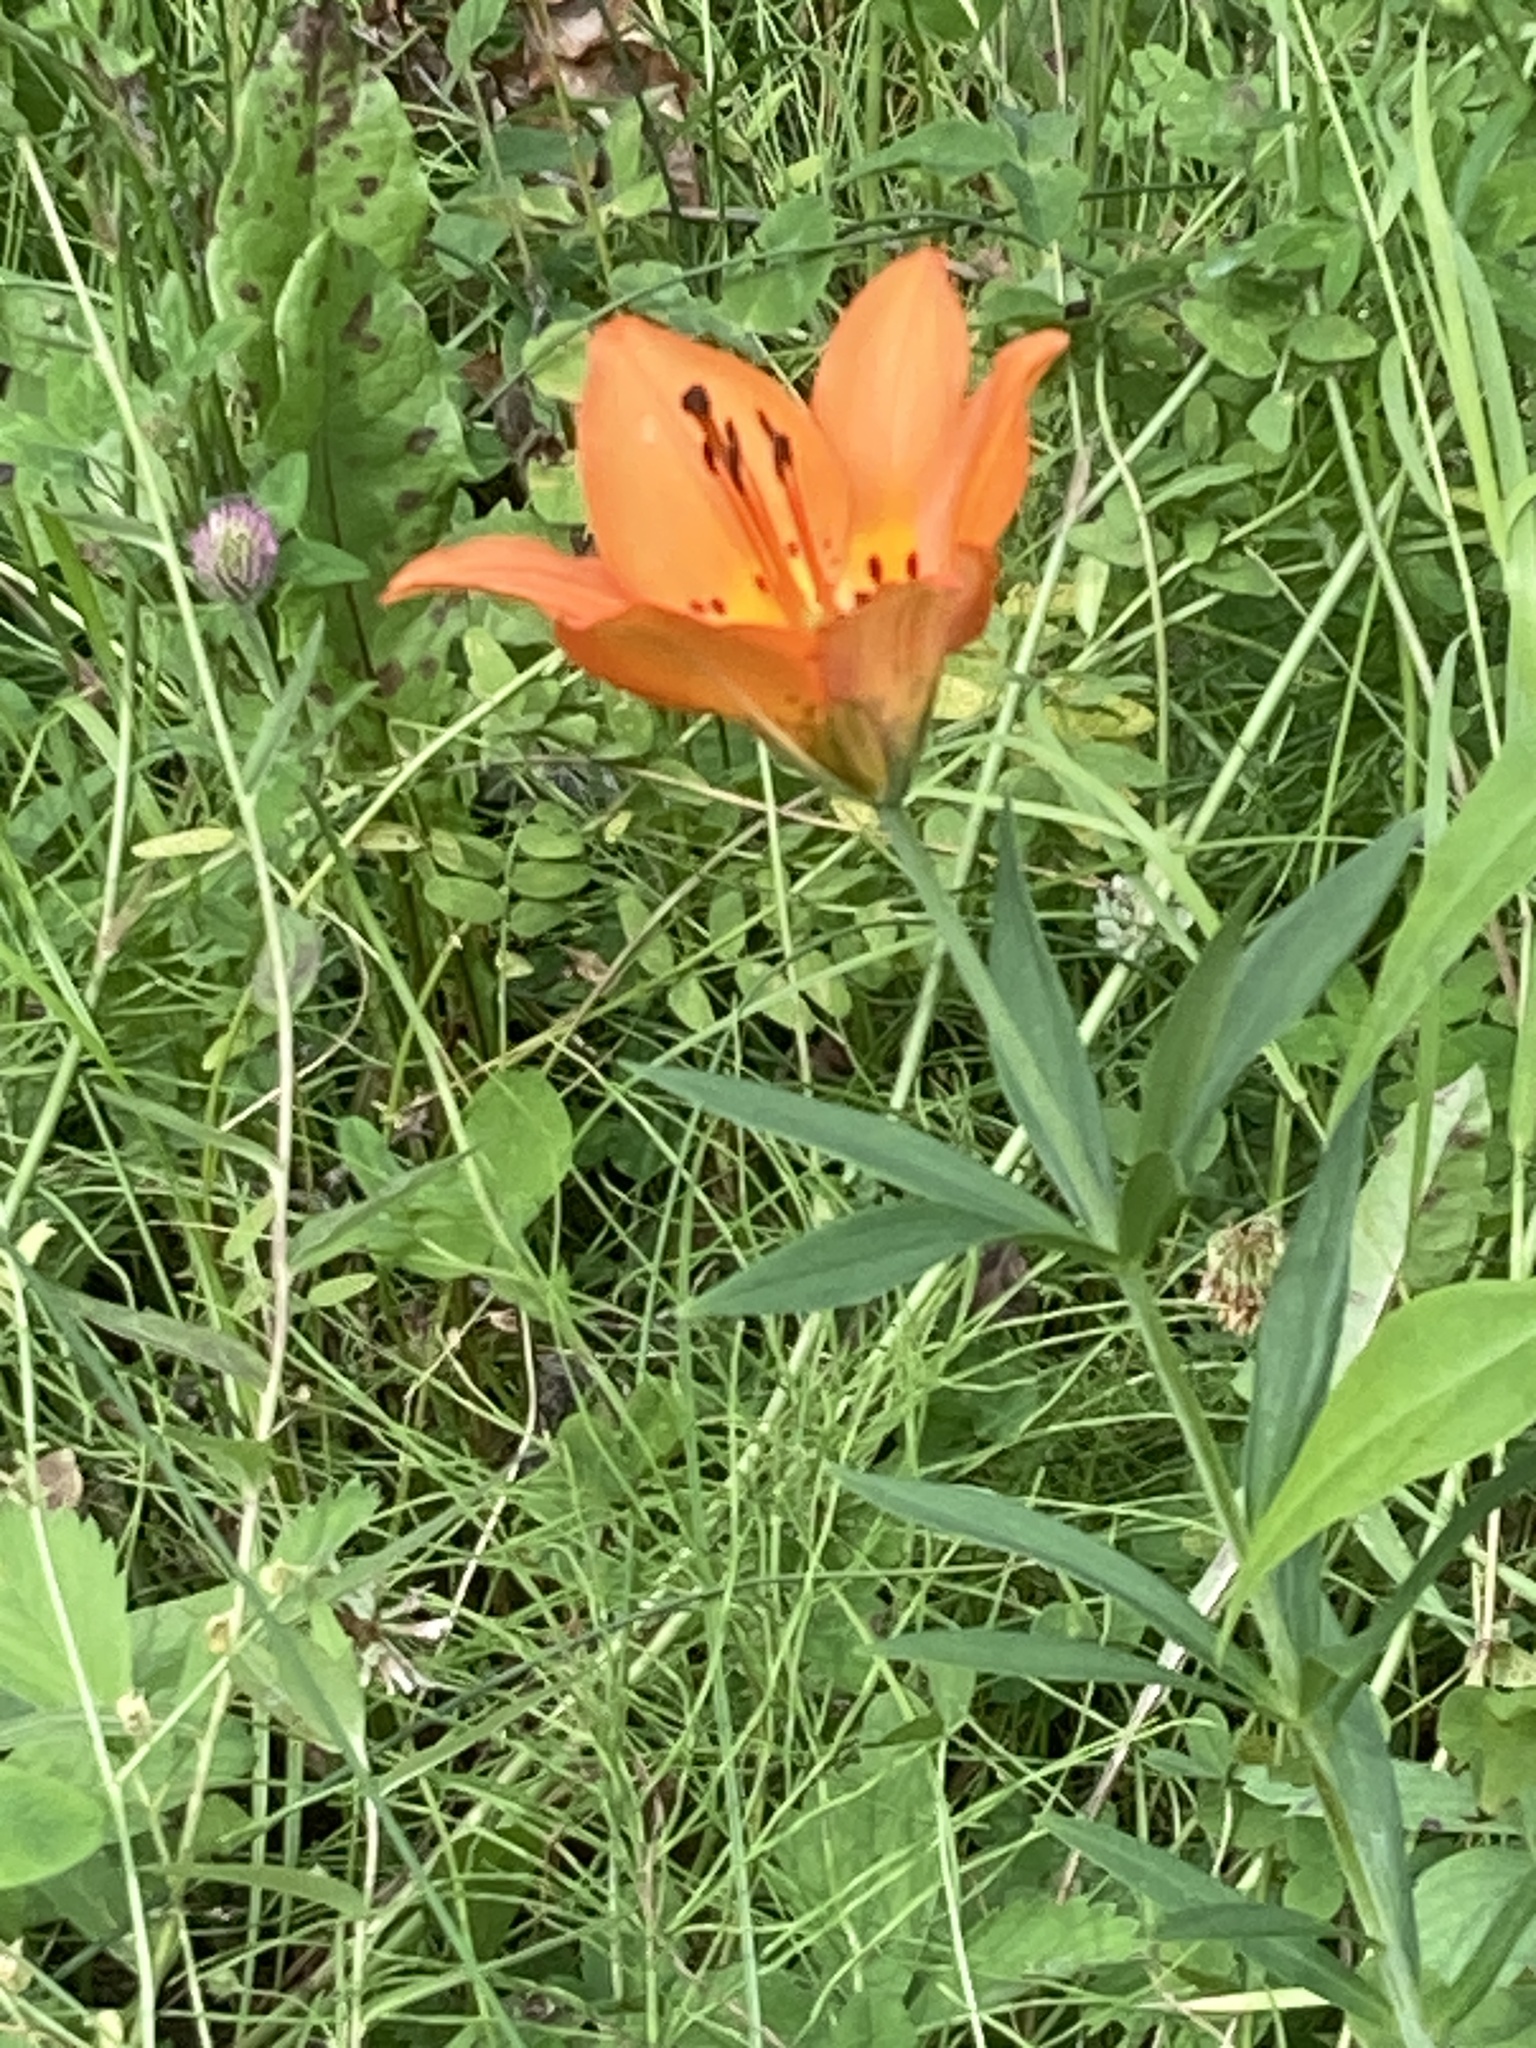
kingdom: Plantae
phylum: Tracheophyta
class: Liliopsida
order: Liliales
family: Liliaceae
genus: Lilium
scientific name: Lilium philadelphicum
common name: Red lily
